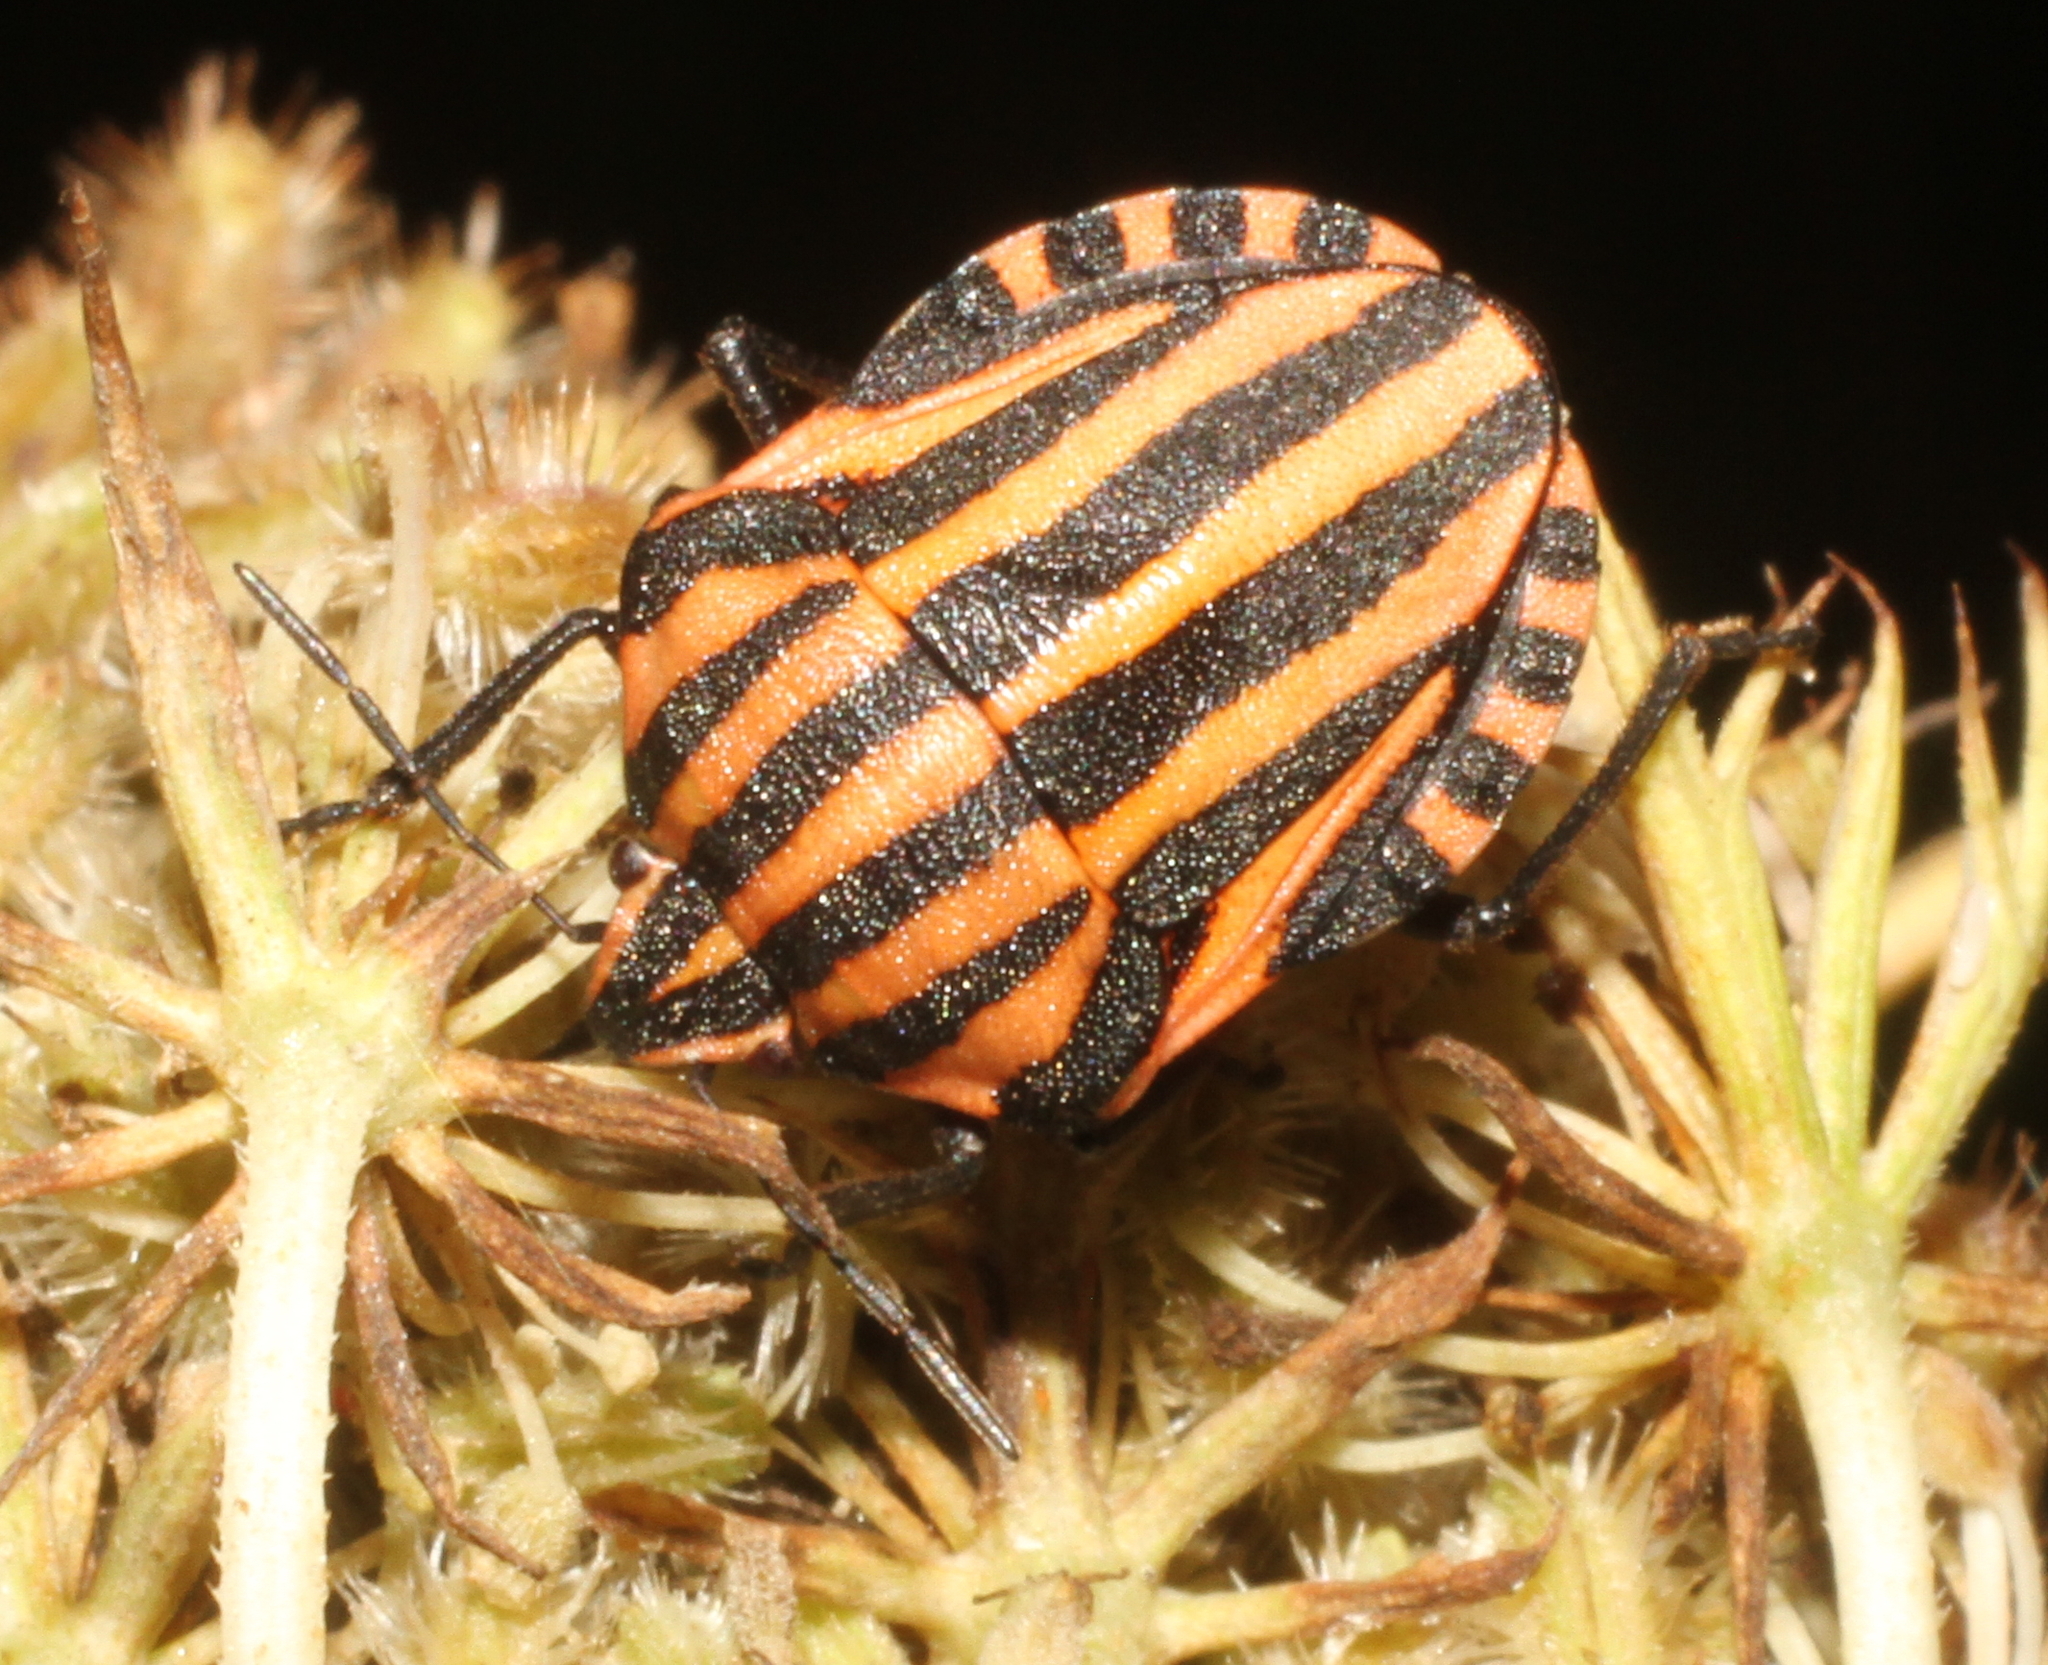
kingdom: Animalia
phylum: Arthropoda
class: Insecta
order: Hemiptera
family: Pentatomidae
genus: Graphosoma
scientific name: Graphosoma italicum
